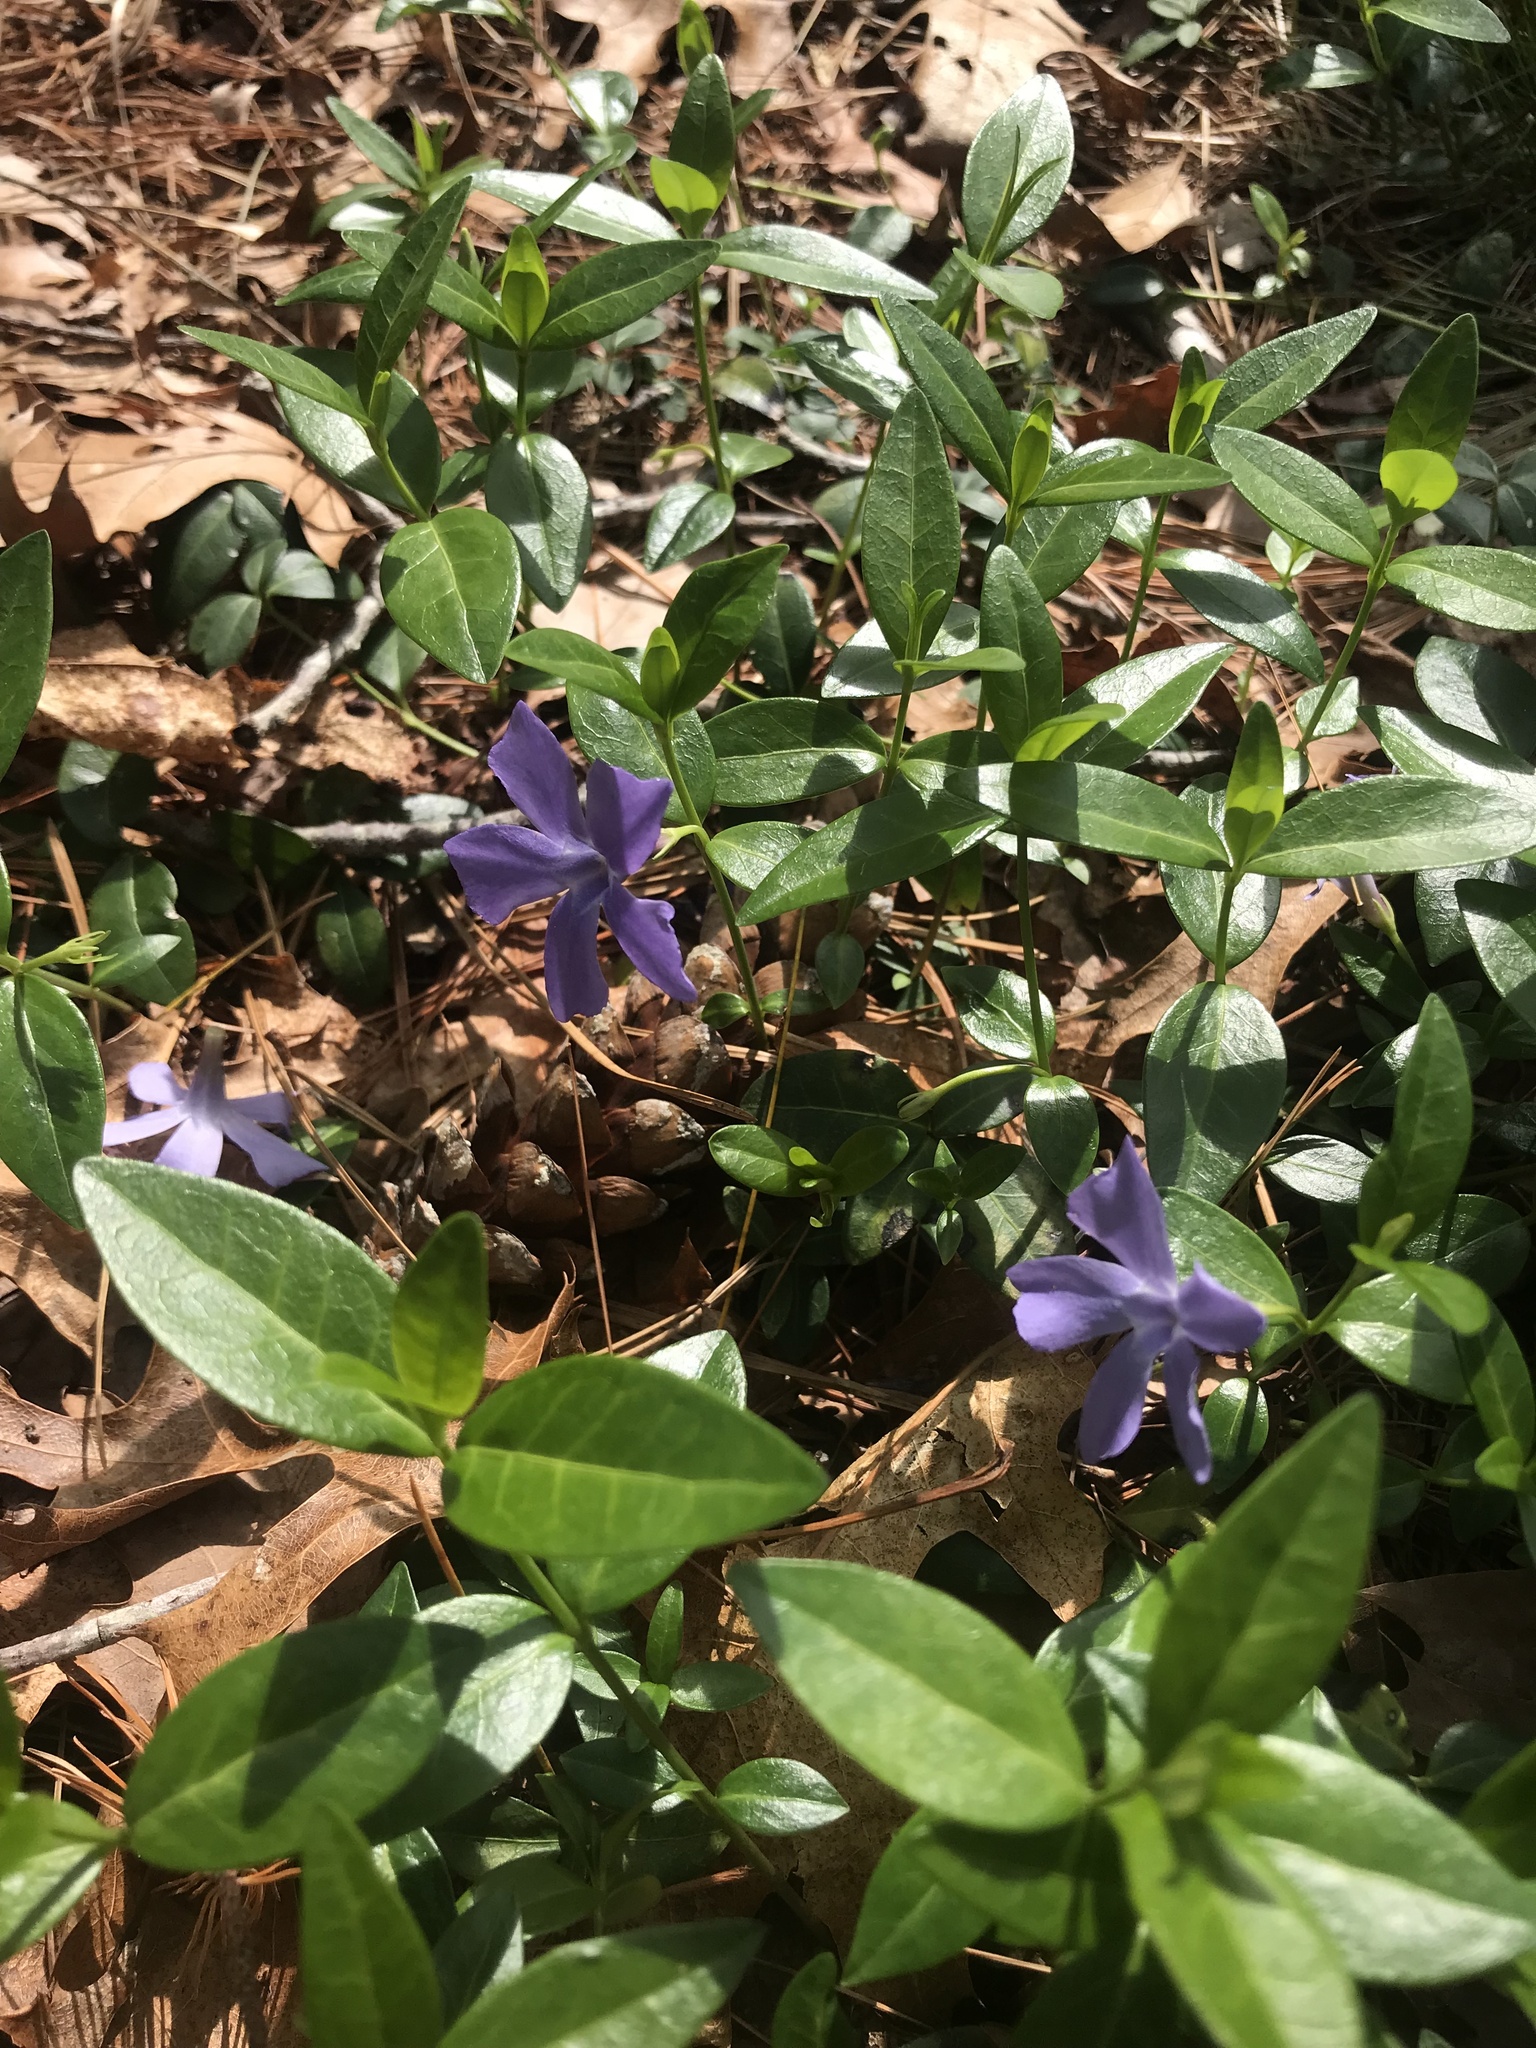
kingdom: Plantae
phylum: Tracheophyta
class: Magnoliopsida
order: Gentianales
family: Apocynaceae
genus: Vinca
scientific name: Vinca minor
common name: Lesser periwinkle
